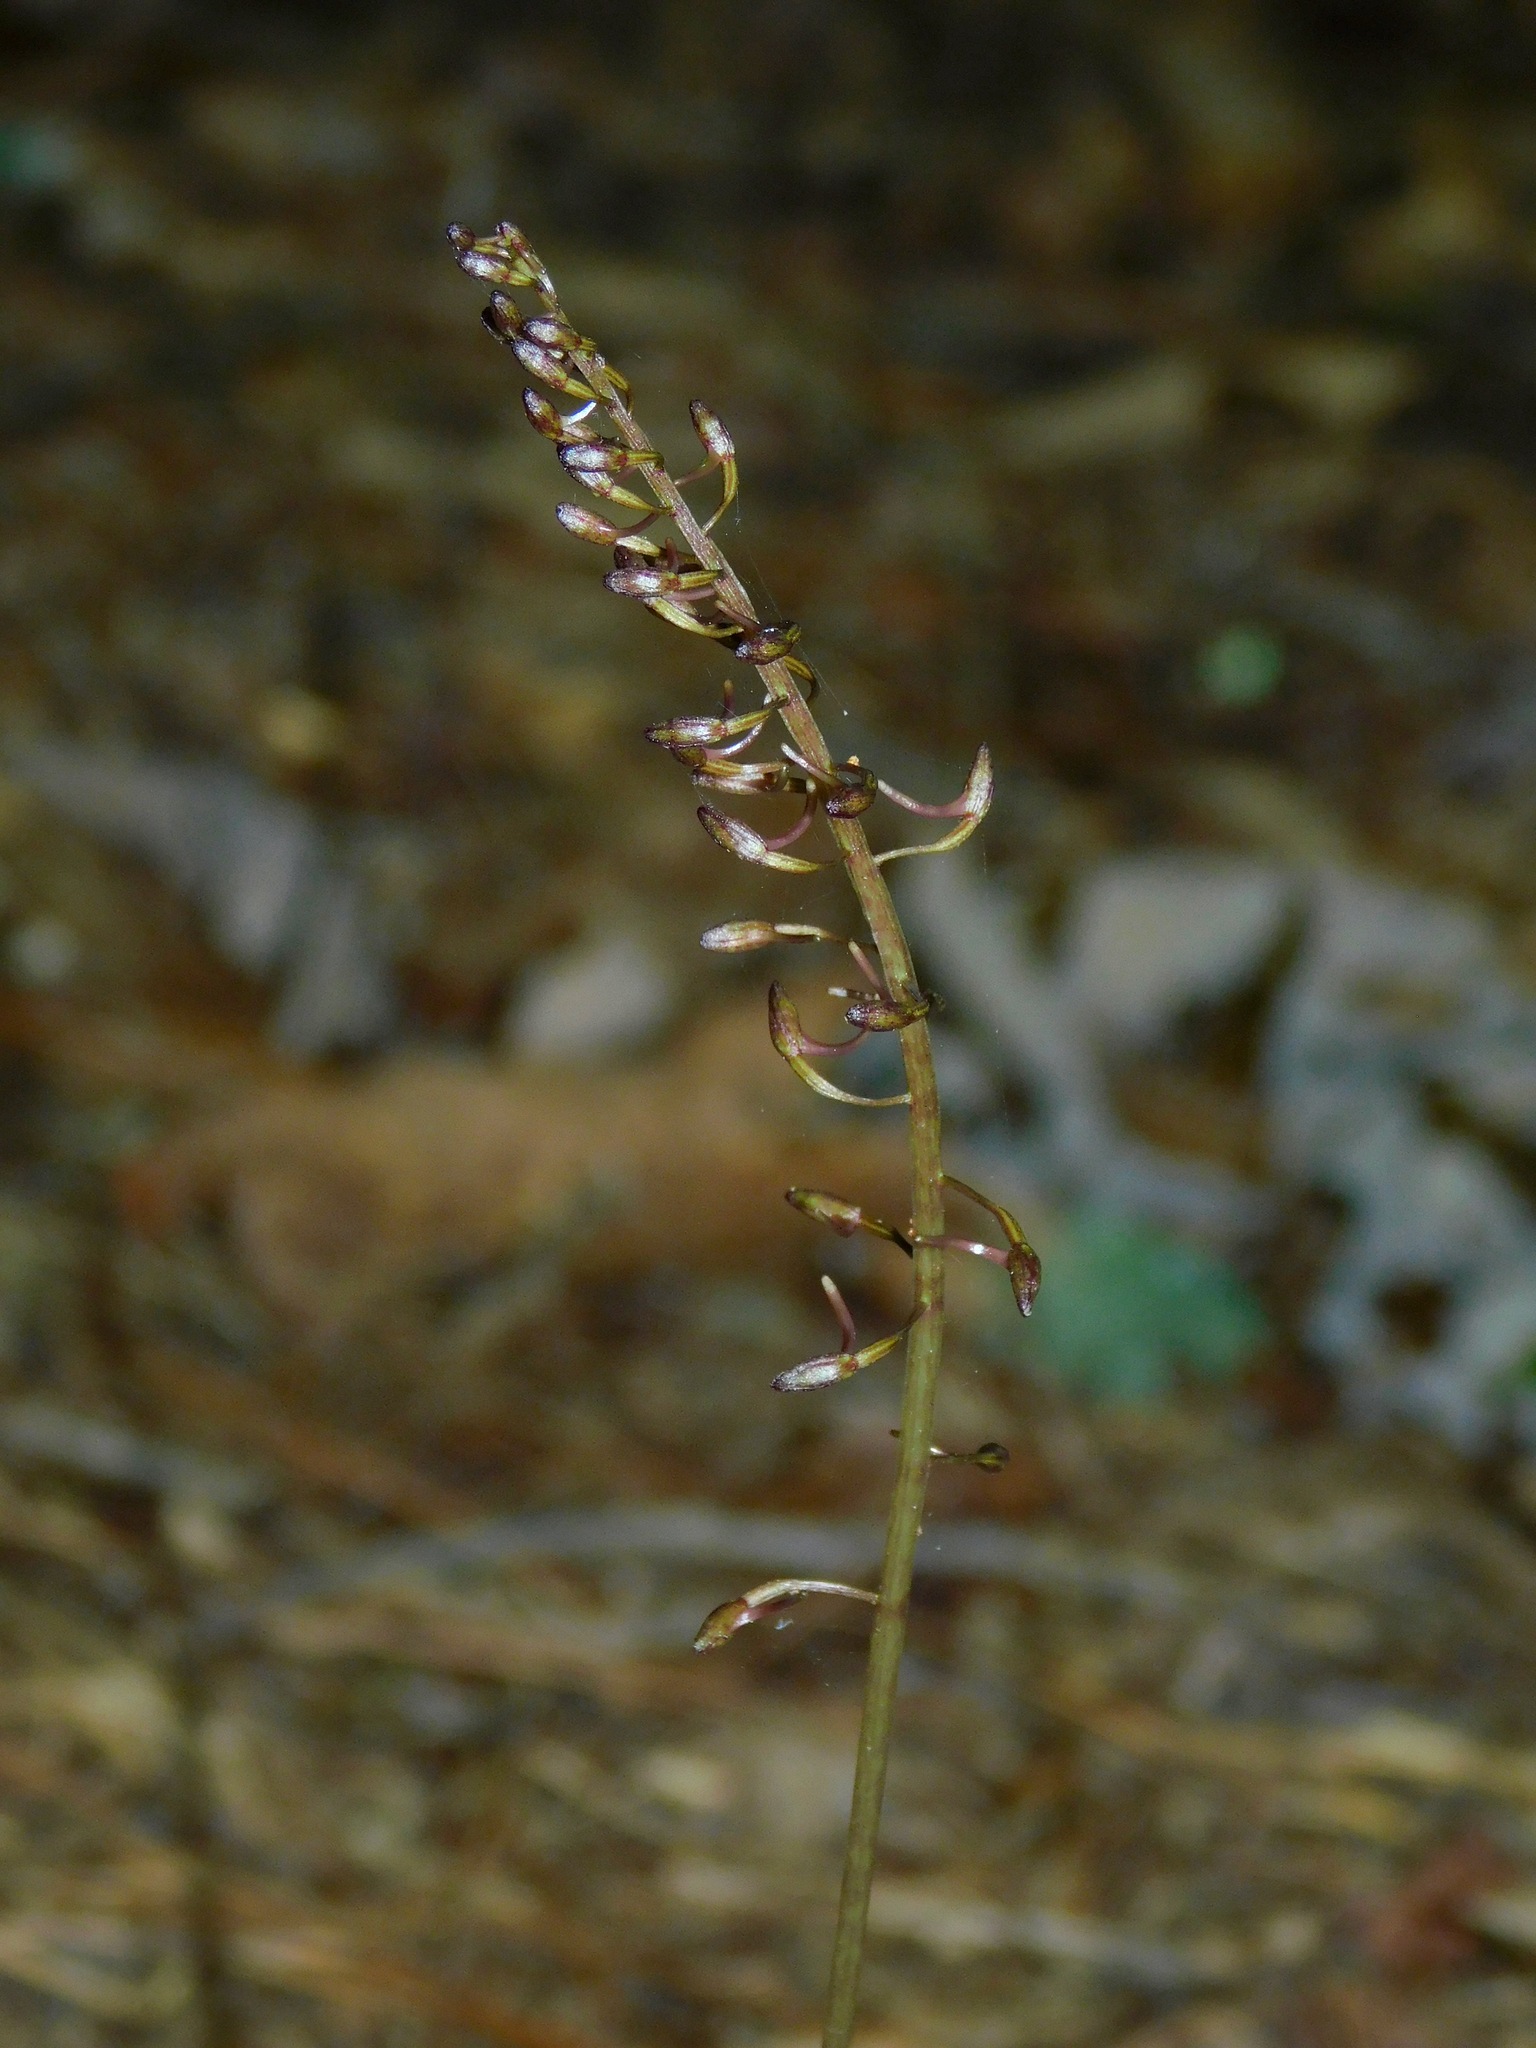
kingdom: Plantae
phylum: Tracheophyta
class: Liliopsida
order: Asparagales
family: Orchidaceae
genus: Tipularia
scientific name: Tipularia discolor
